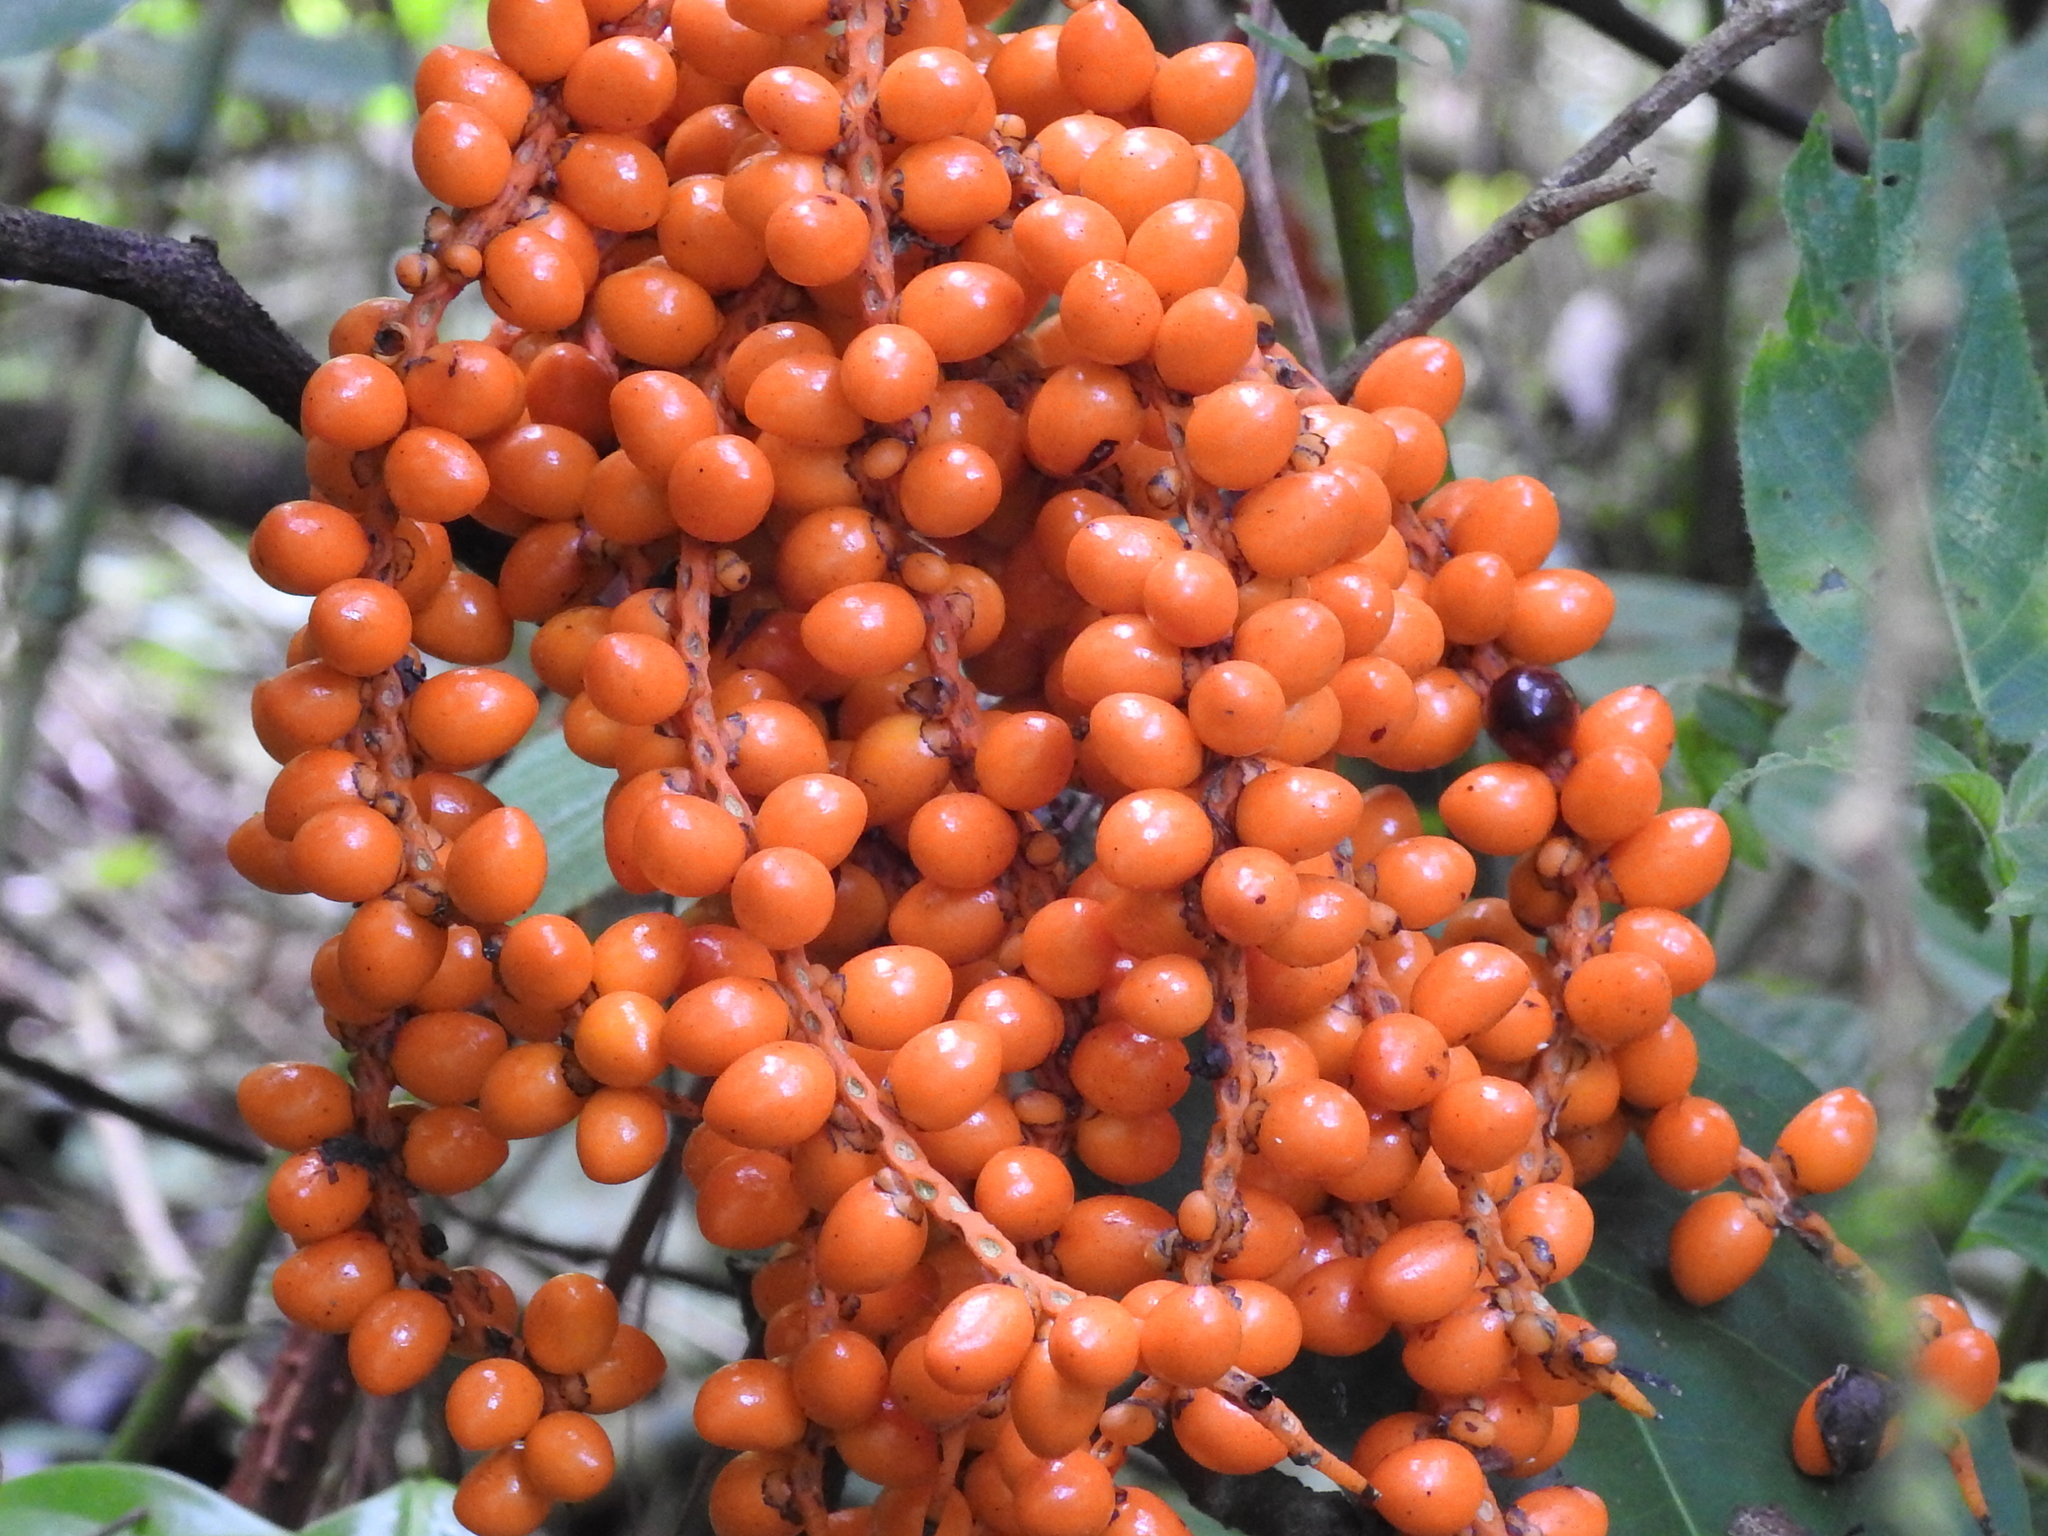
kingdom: Plantae
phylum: Tracheophyta
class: Liliopsida
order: Arecales
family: Arecaceae
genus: Chamaedorea
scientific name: Chamaedorea pinnatifrons
